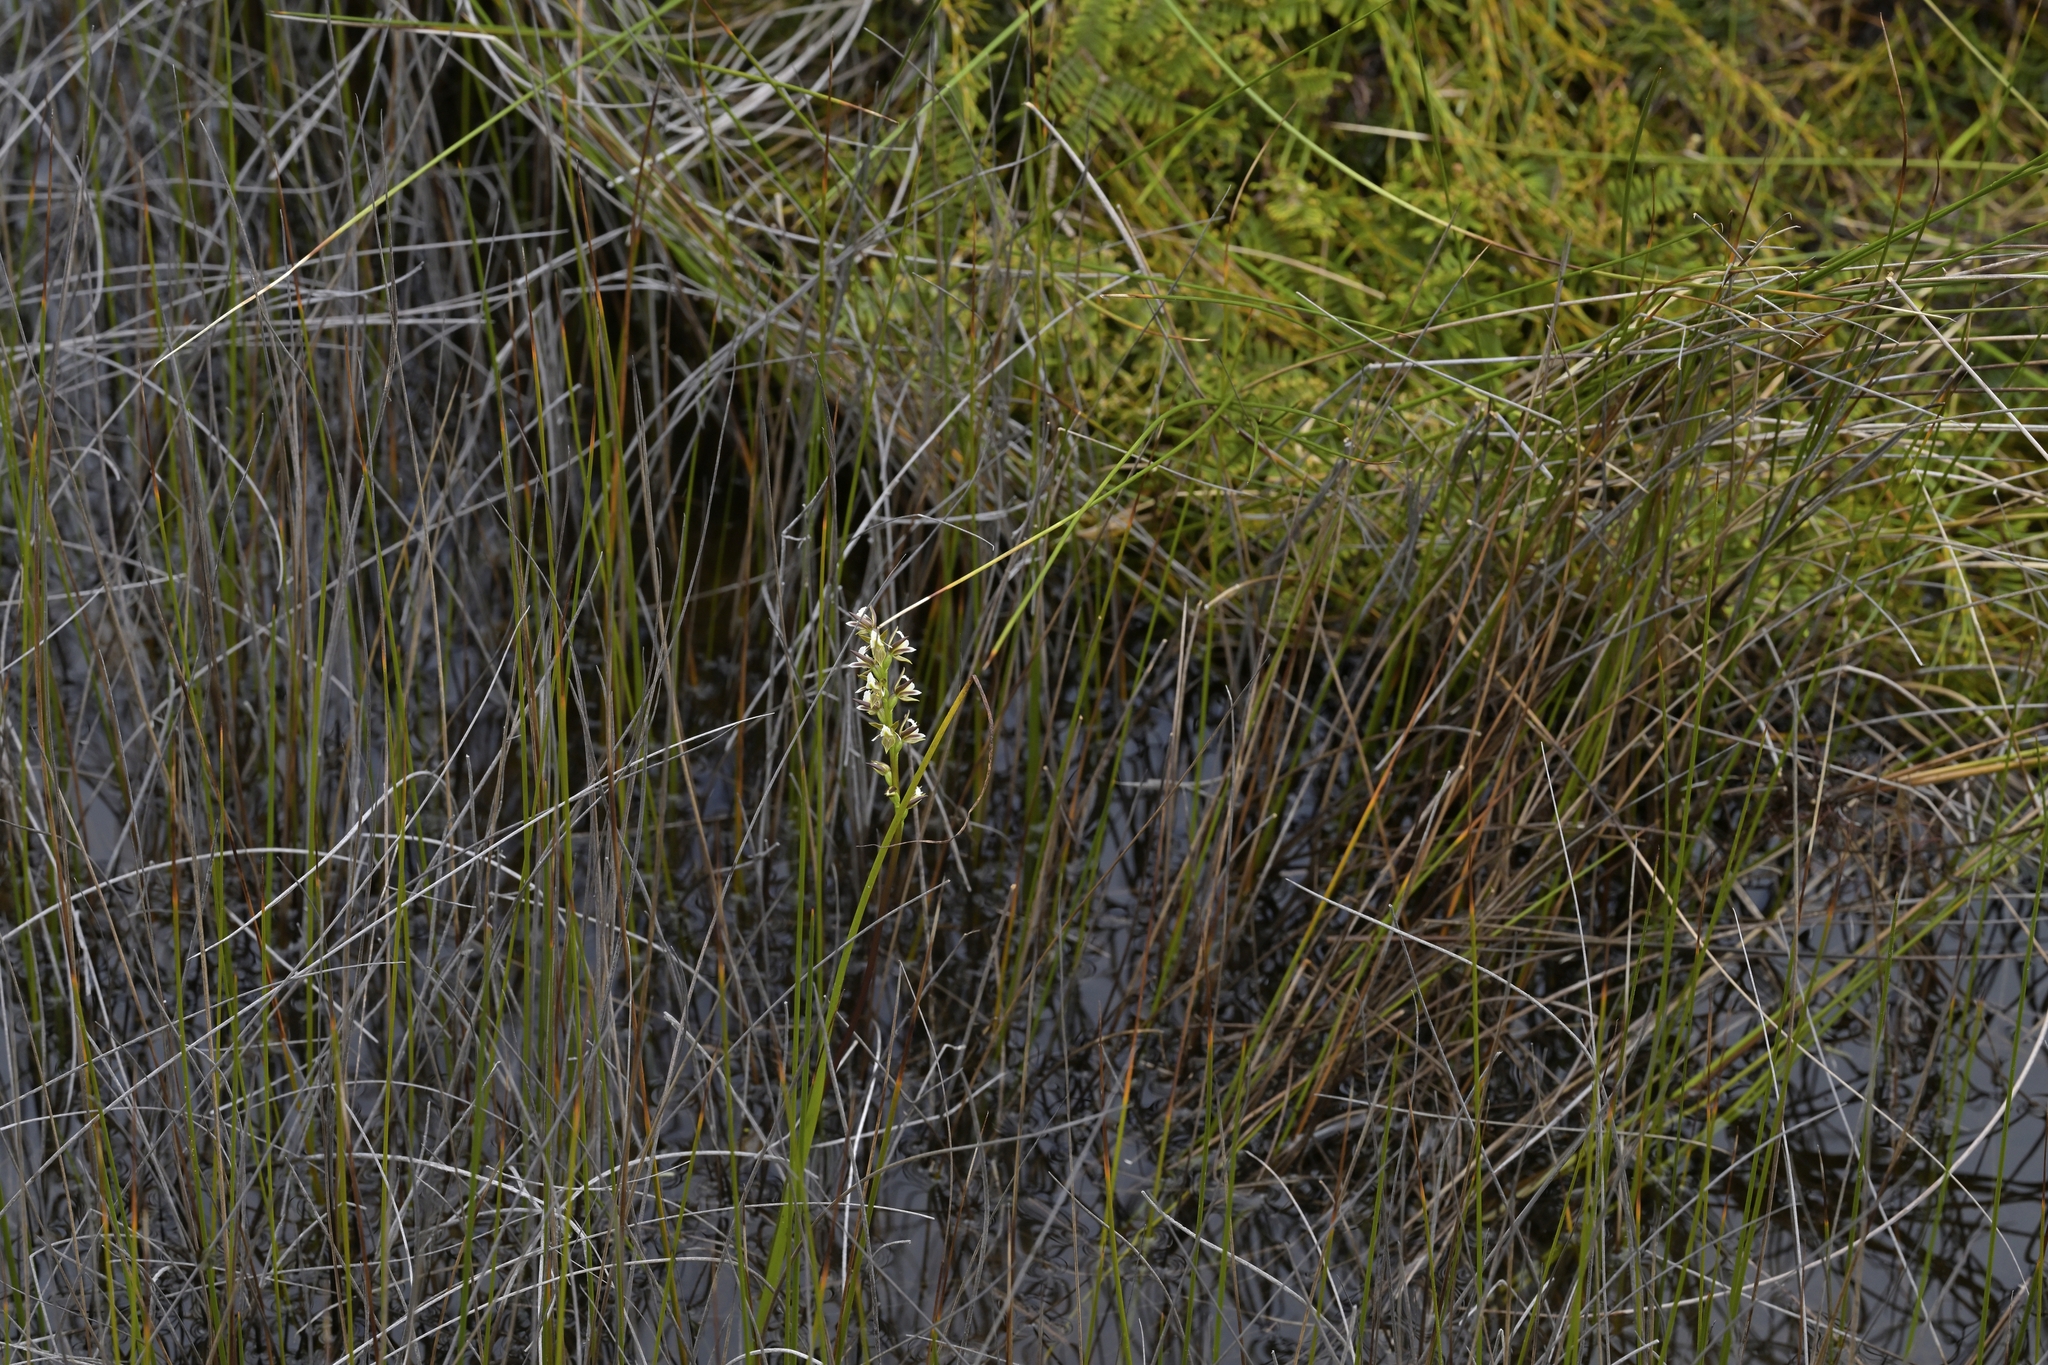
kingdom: Plantae
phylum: Tracheophyta
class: Liliopsida
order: Asparagales
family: Orchidaceae
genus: Prasophyllum
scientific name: Prasophyllum hectorii
